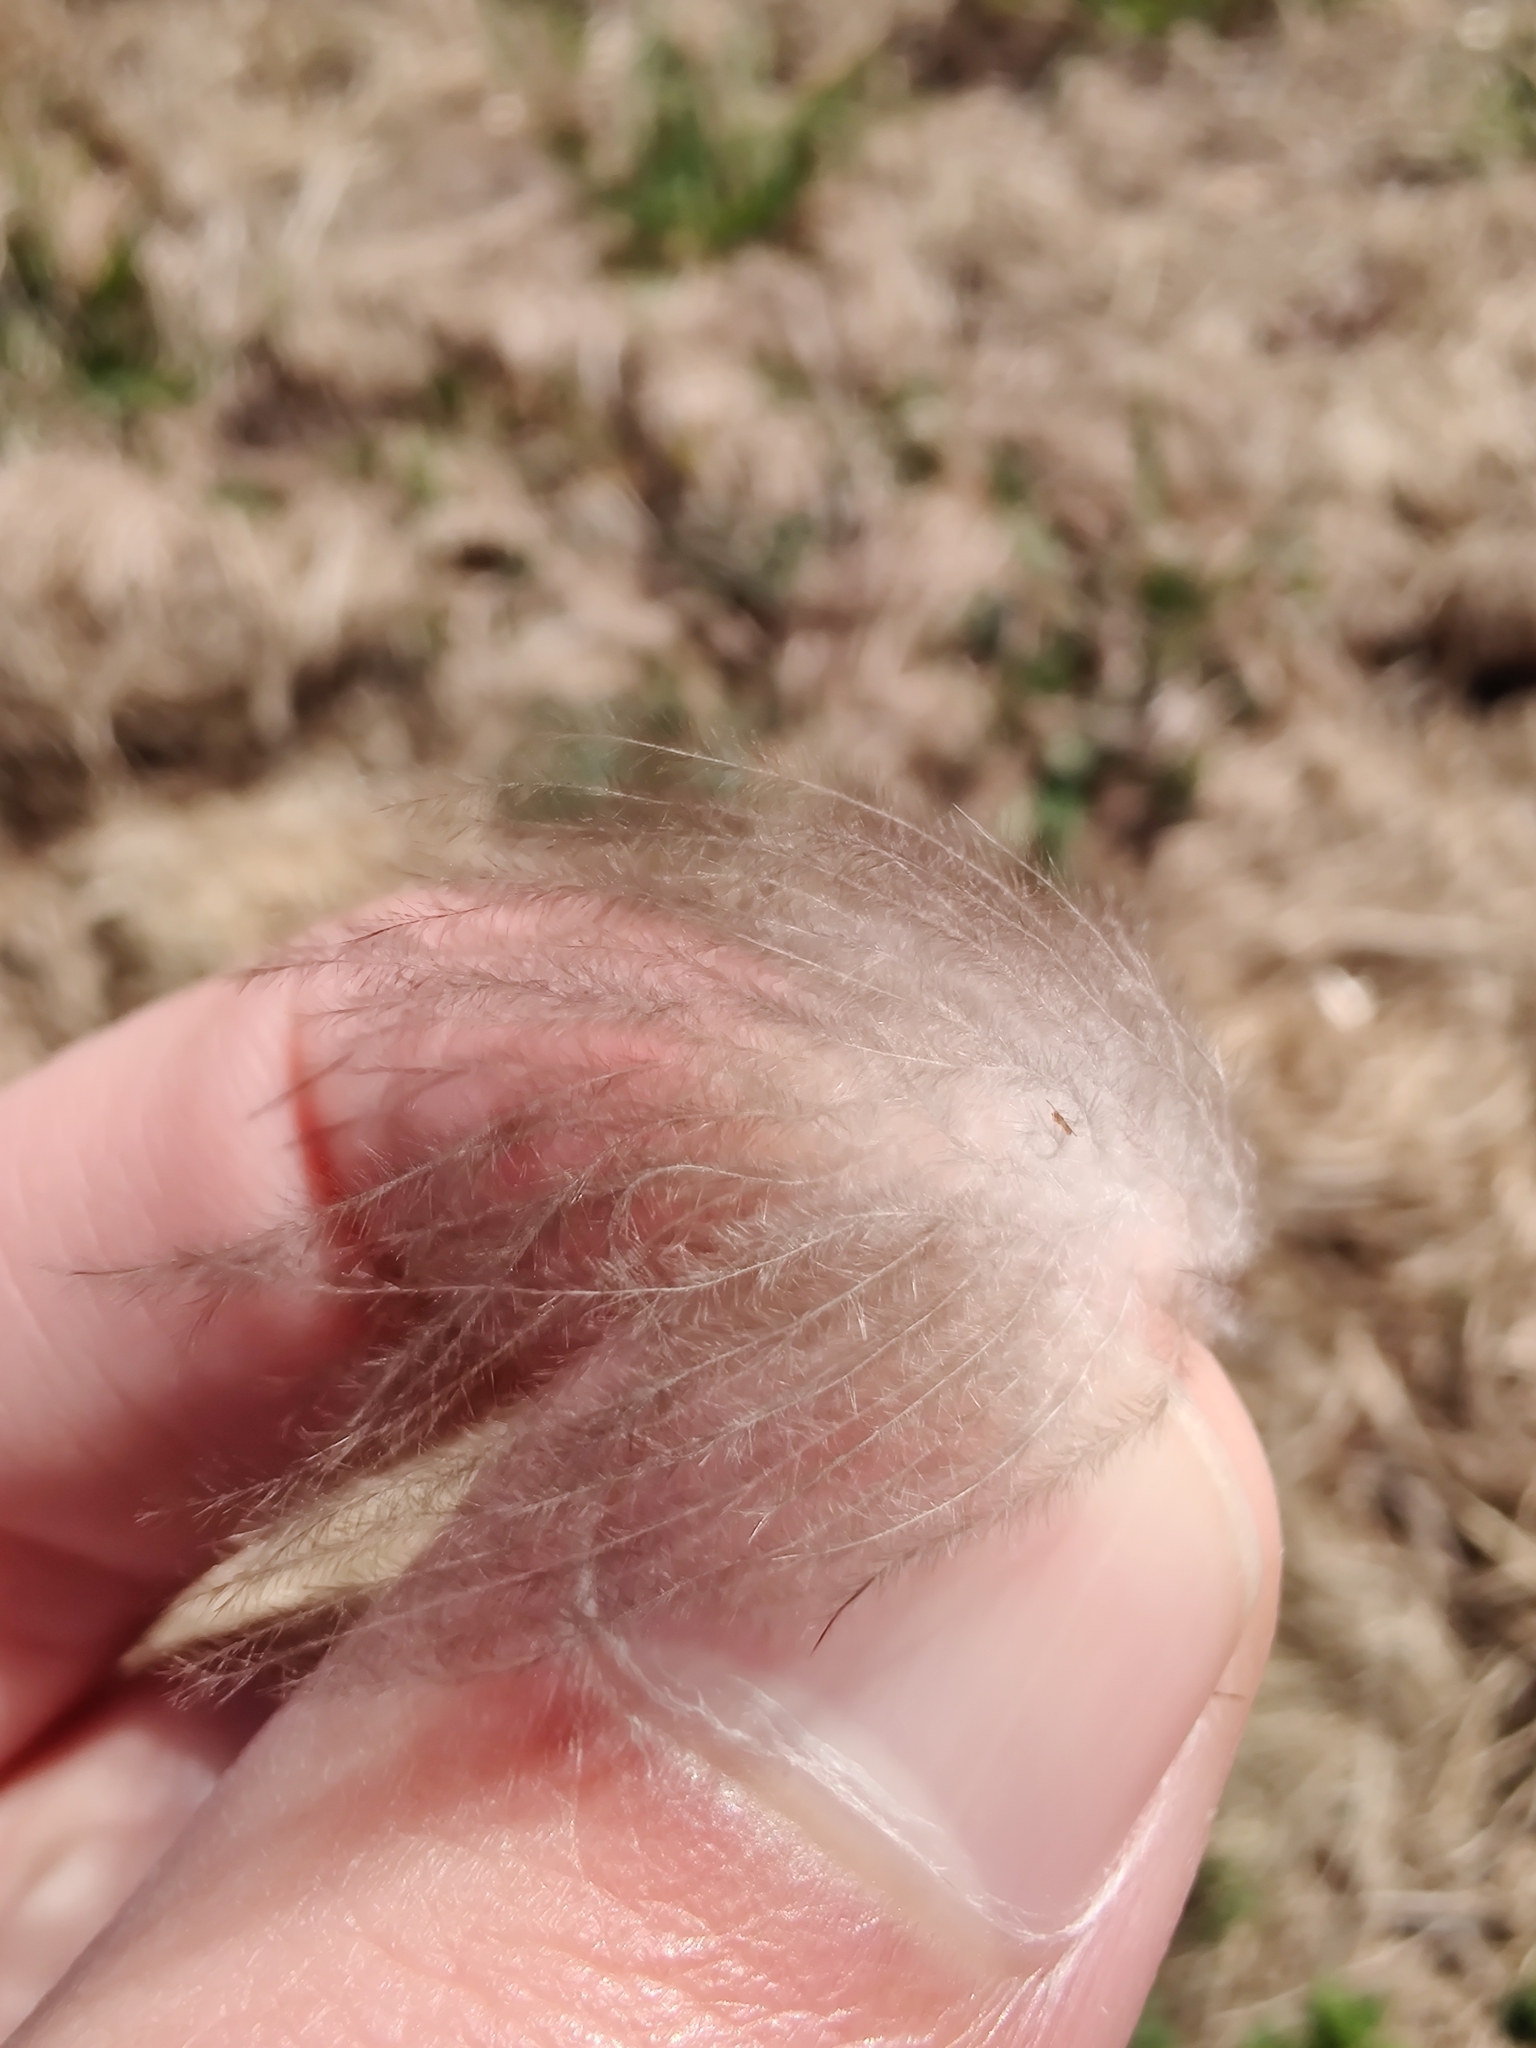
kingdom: Animalia
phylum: Chordata
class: Aves
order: Anseriformes
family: Anatidae
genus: Branta
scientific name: Branta canadensis
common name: Canada goose
